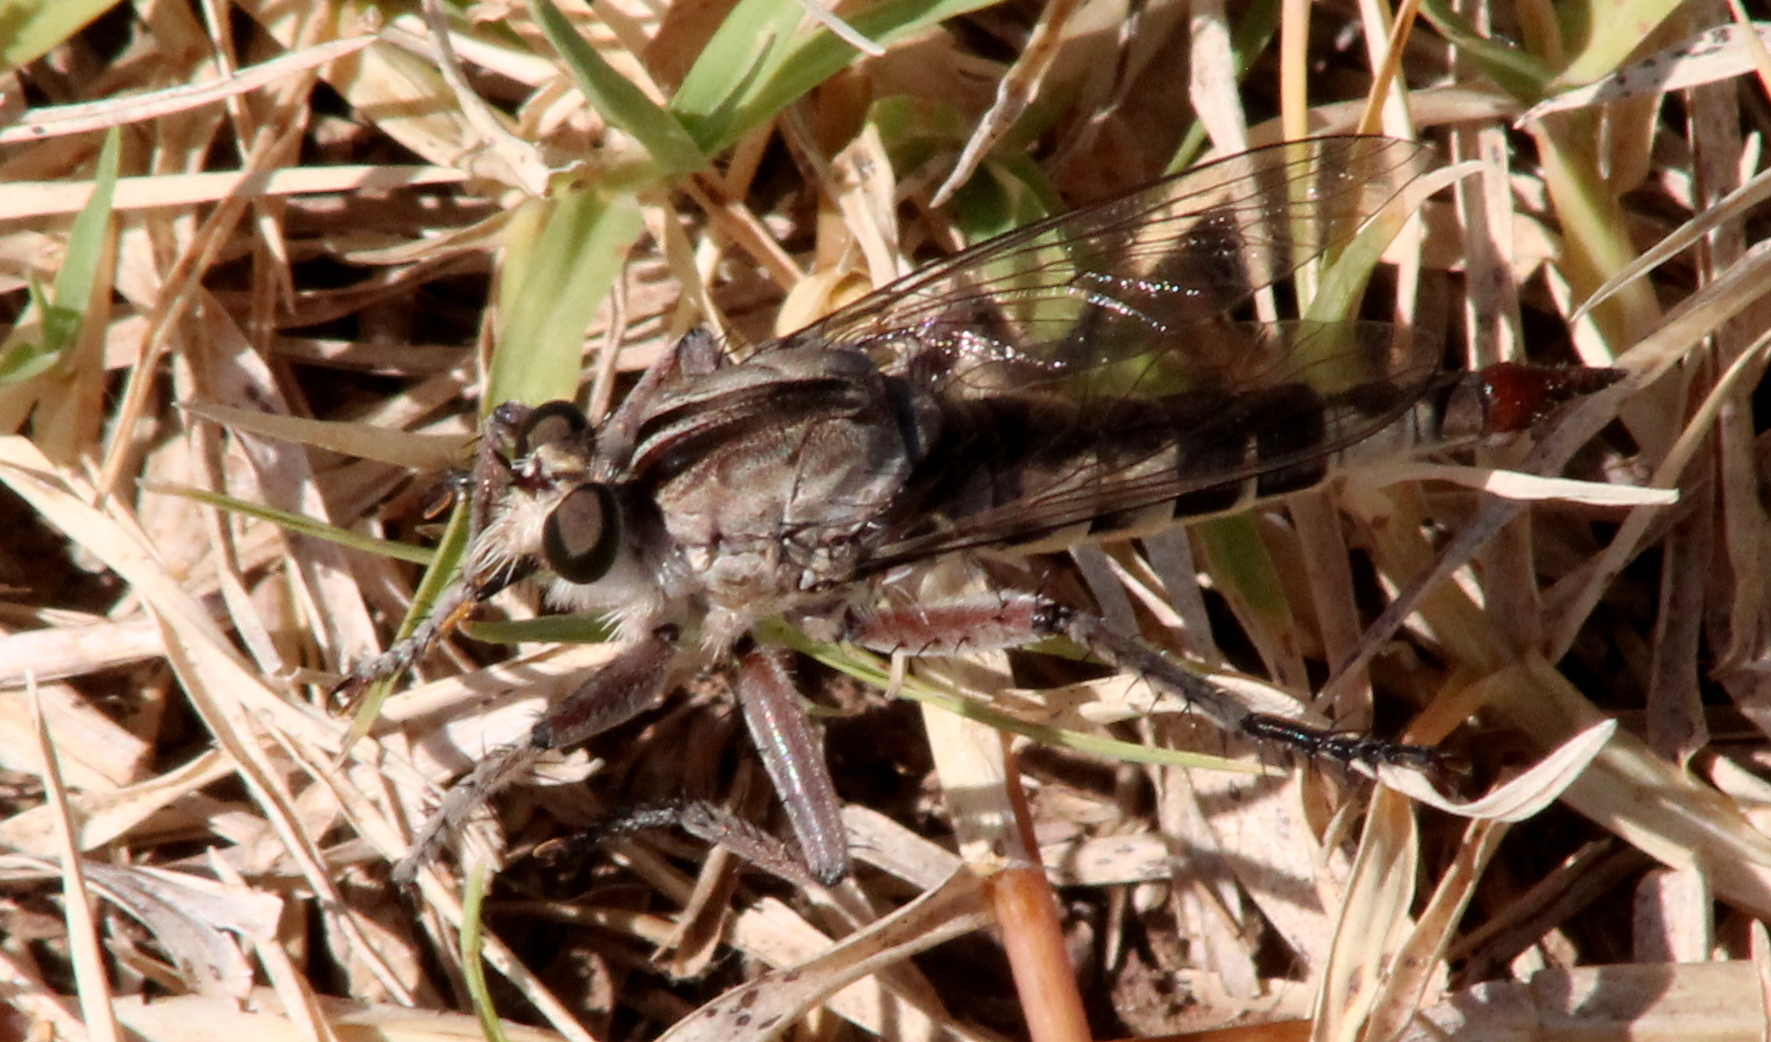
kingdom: Animalia
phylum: Arthropoda
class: Insecta
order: Diptera
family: Asilidae
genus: Triorla
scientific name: Triorla interrupta
